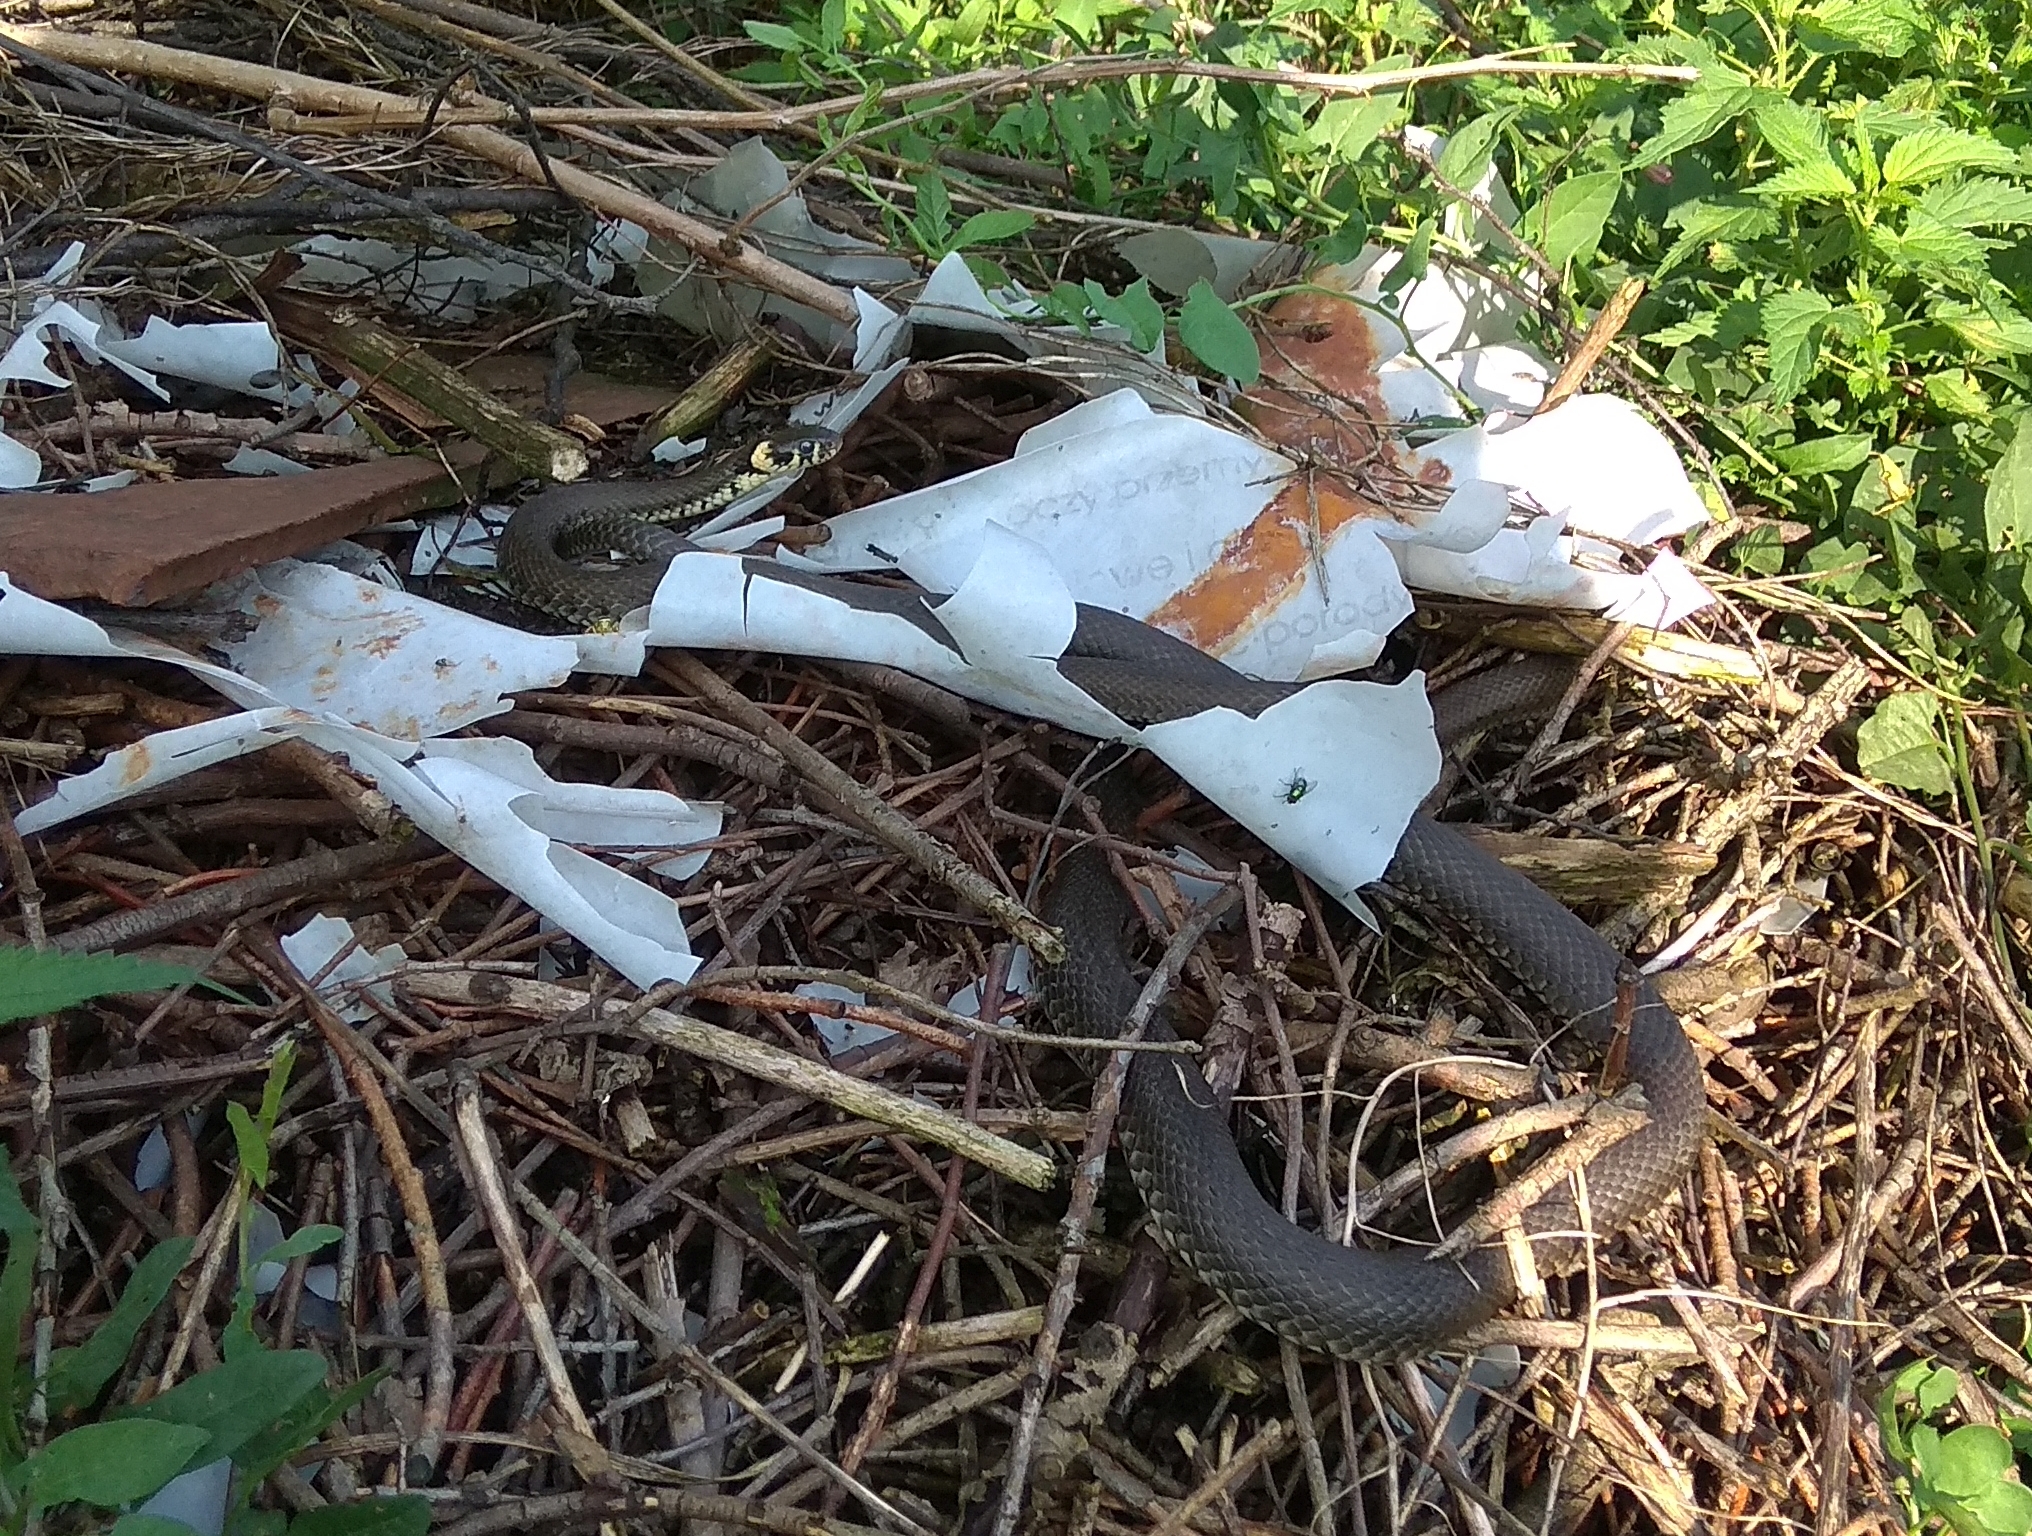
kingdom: Animalia
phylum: Chordata
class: Squamata
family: Colubridae
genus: Natrix
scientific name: Natrix natrix
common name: Grass snake
